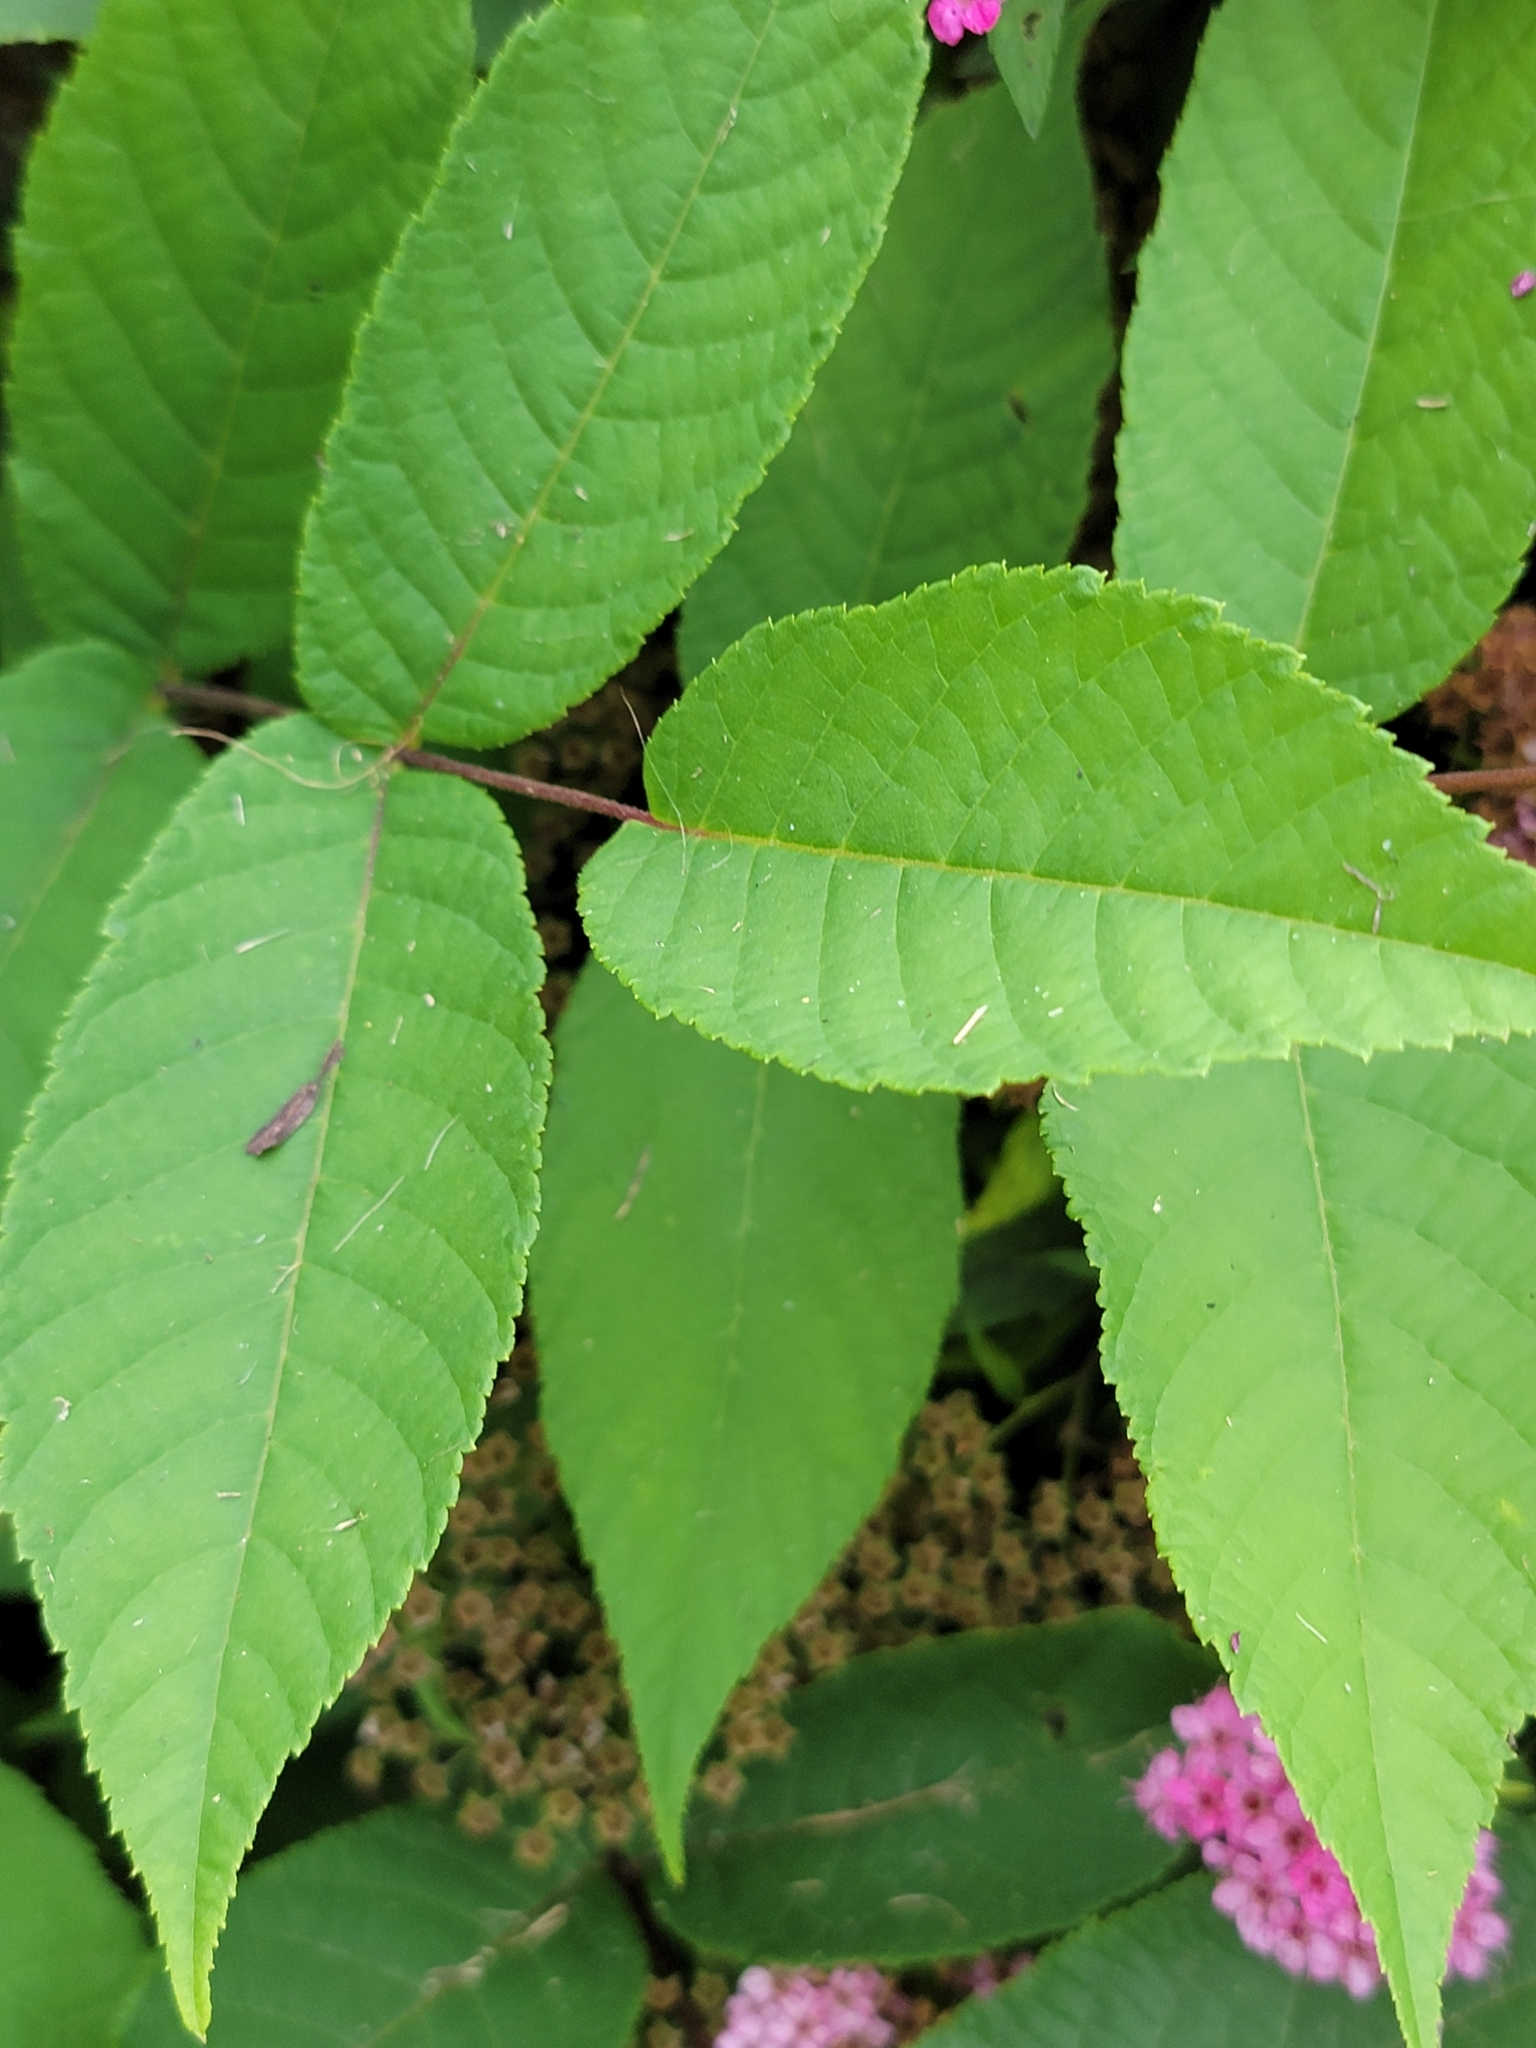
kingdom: Plantae
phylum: Tracheophyta
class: Magnoliopsida
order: Fagales
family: Juglandaceae
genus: Juglans
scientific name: Juglans nigra
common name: Black walnut
